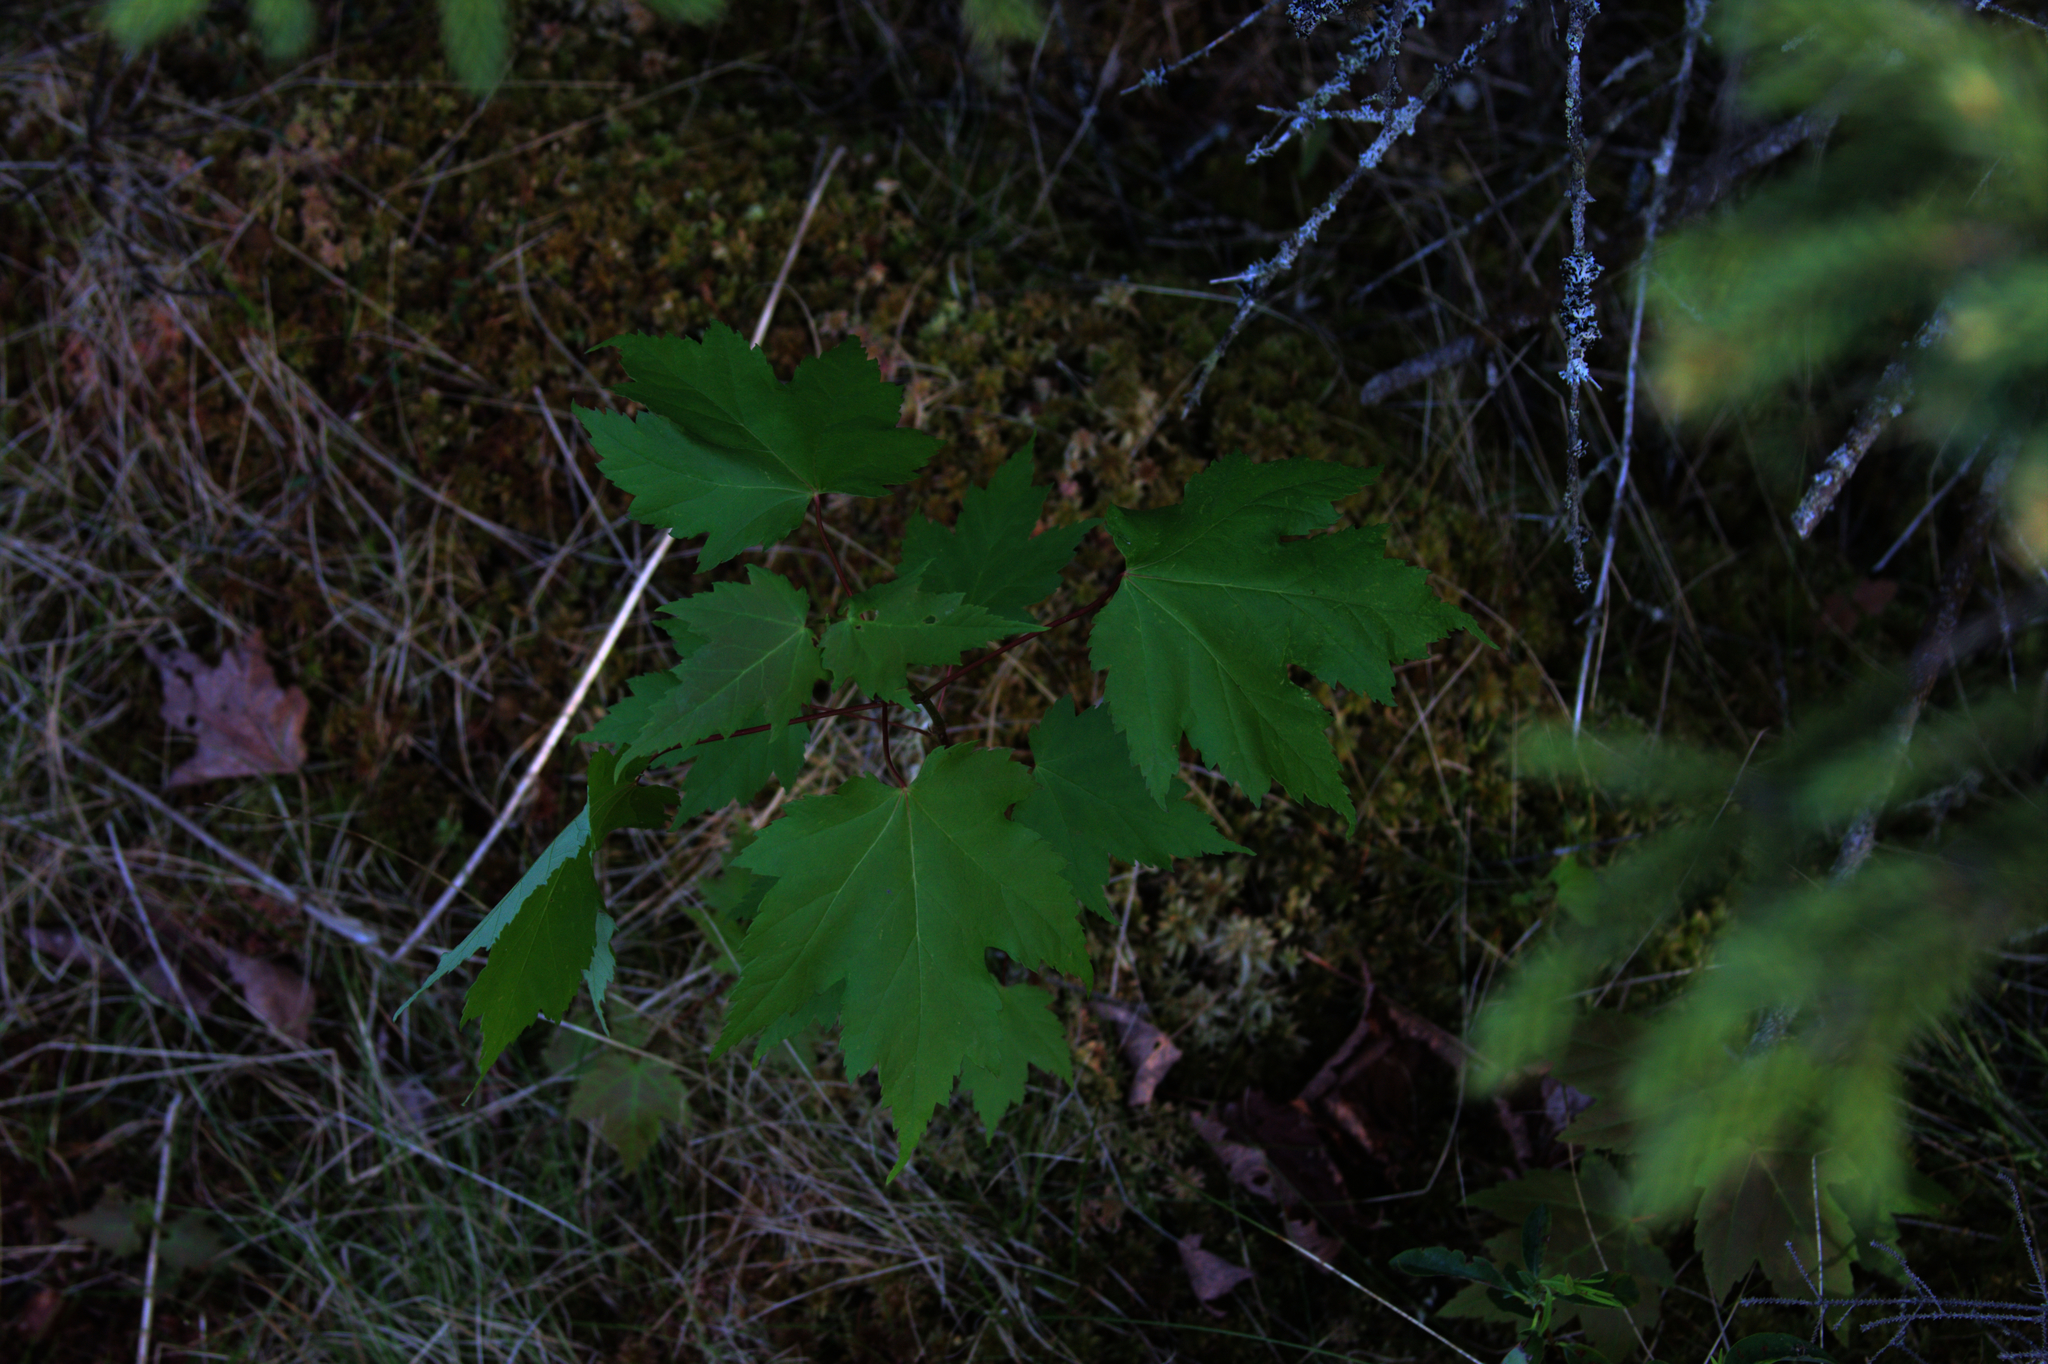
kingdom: Plantae
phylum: Tracheophyta
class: Magnoliopsida
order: Sapindales
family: Sapindaceae
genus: Acer
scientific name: Acer rubrum
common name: Red maple
